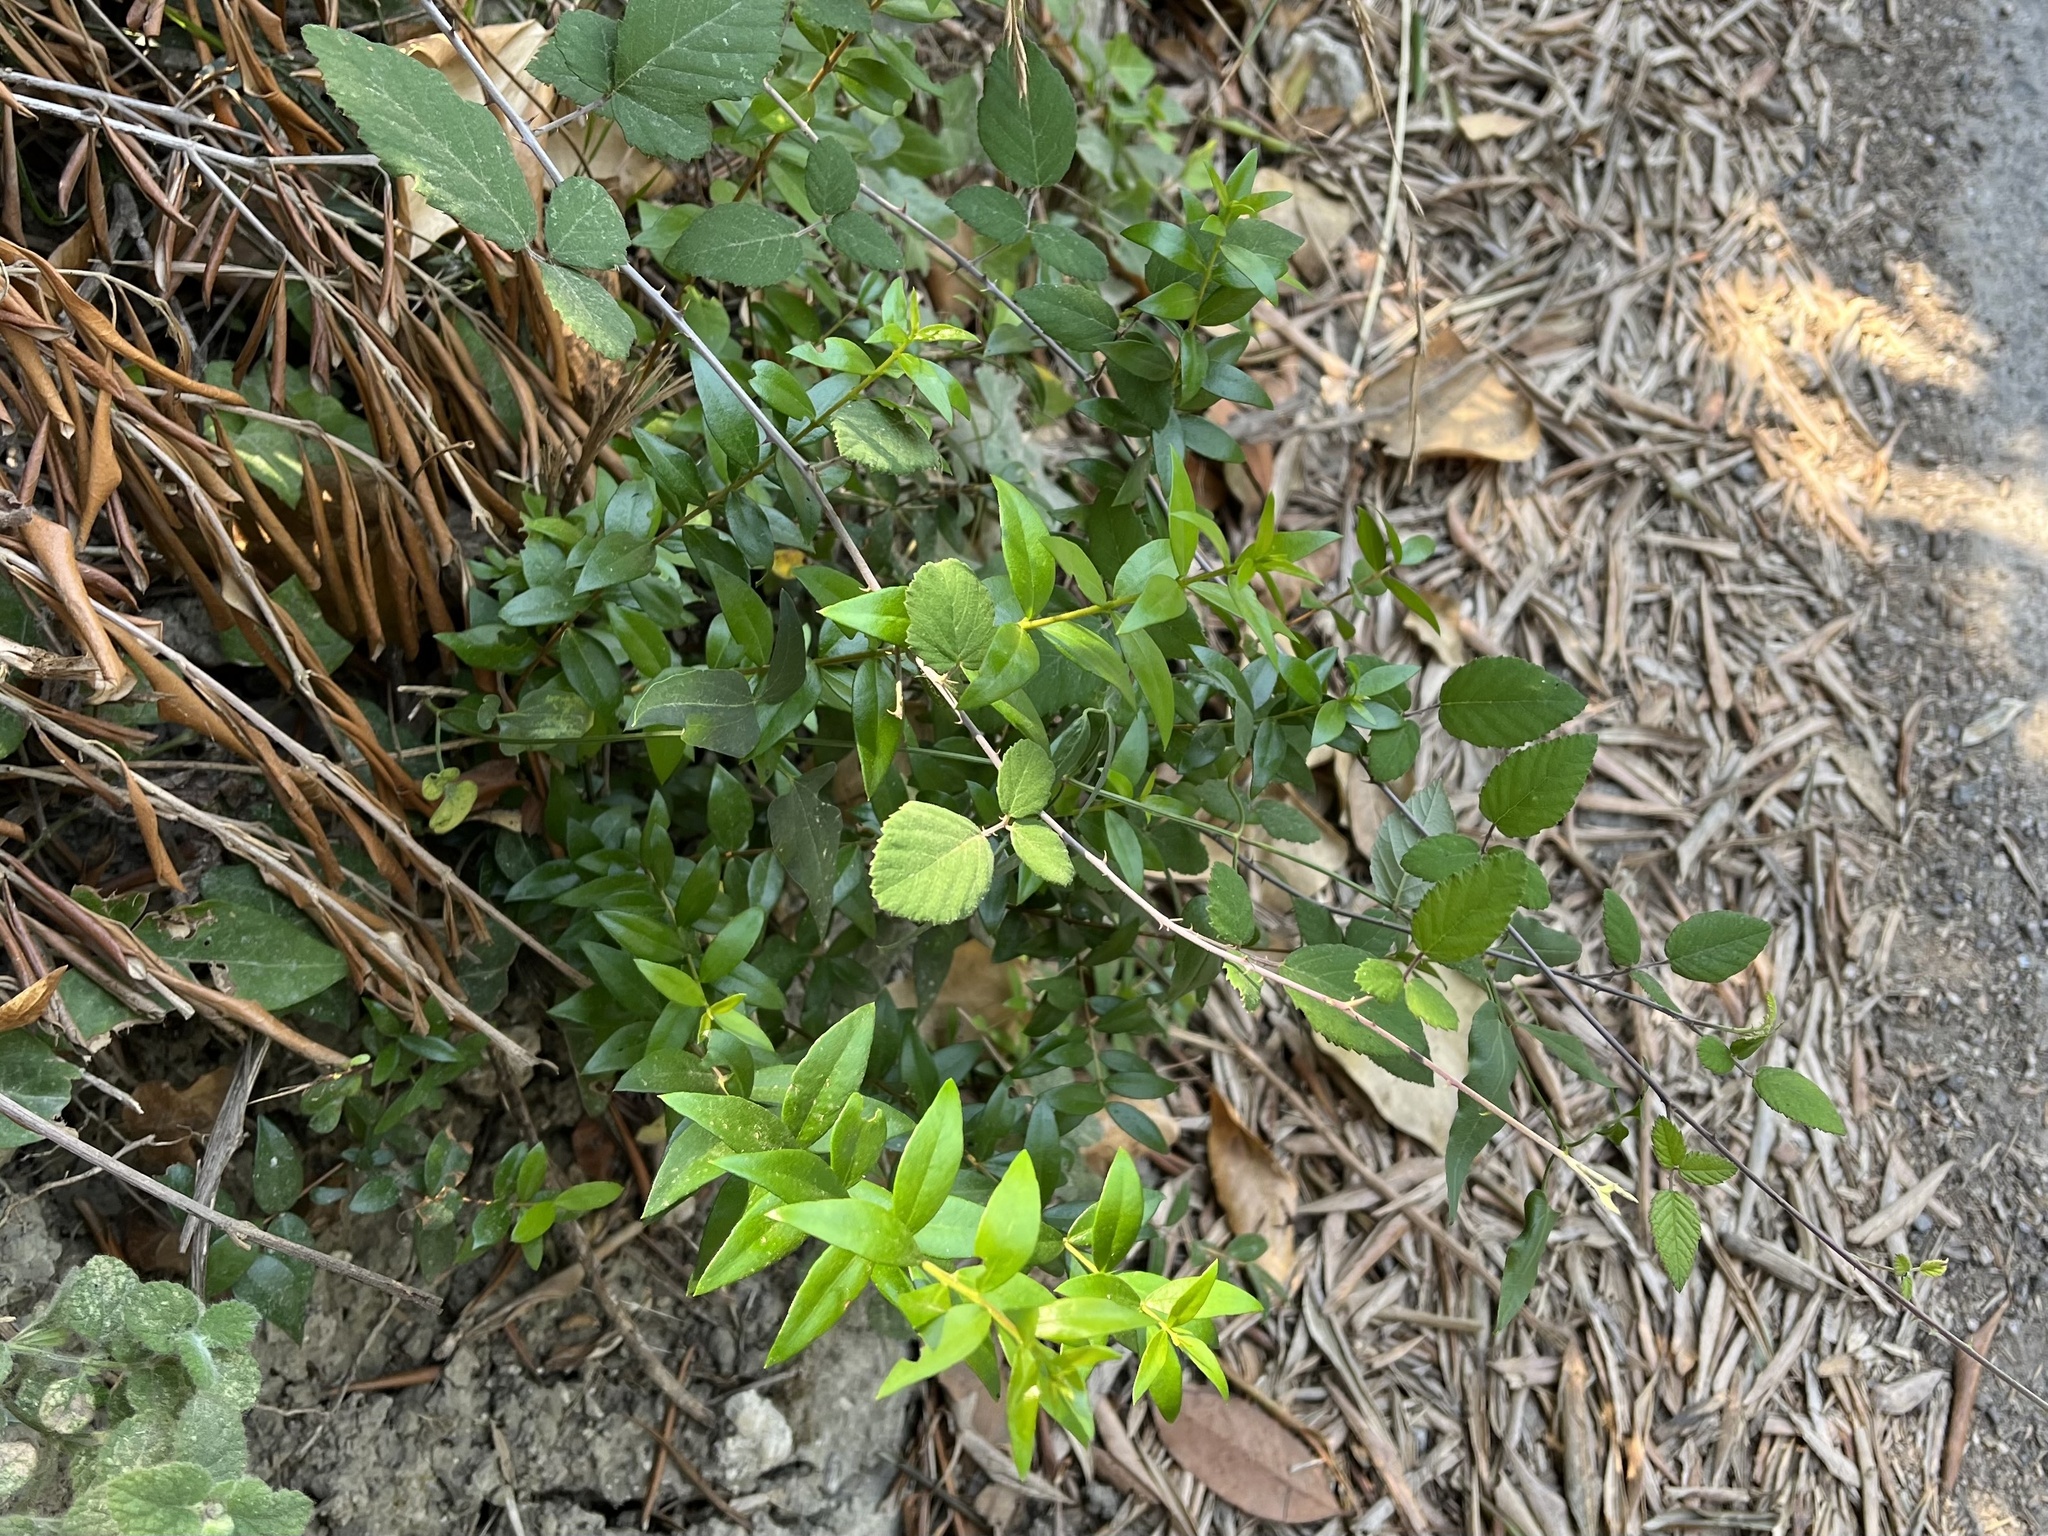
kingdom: Plantae
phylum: Tracheophyta
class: Magnoliopsida
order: Myrtales
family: Myrtaceae
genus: Myrtus
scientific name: Myrtus communis
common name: Myrtle
